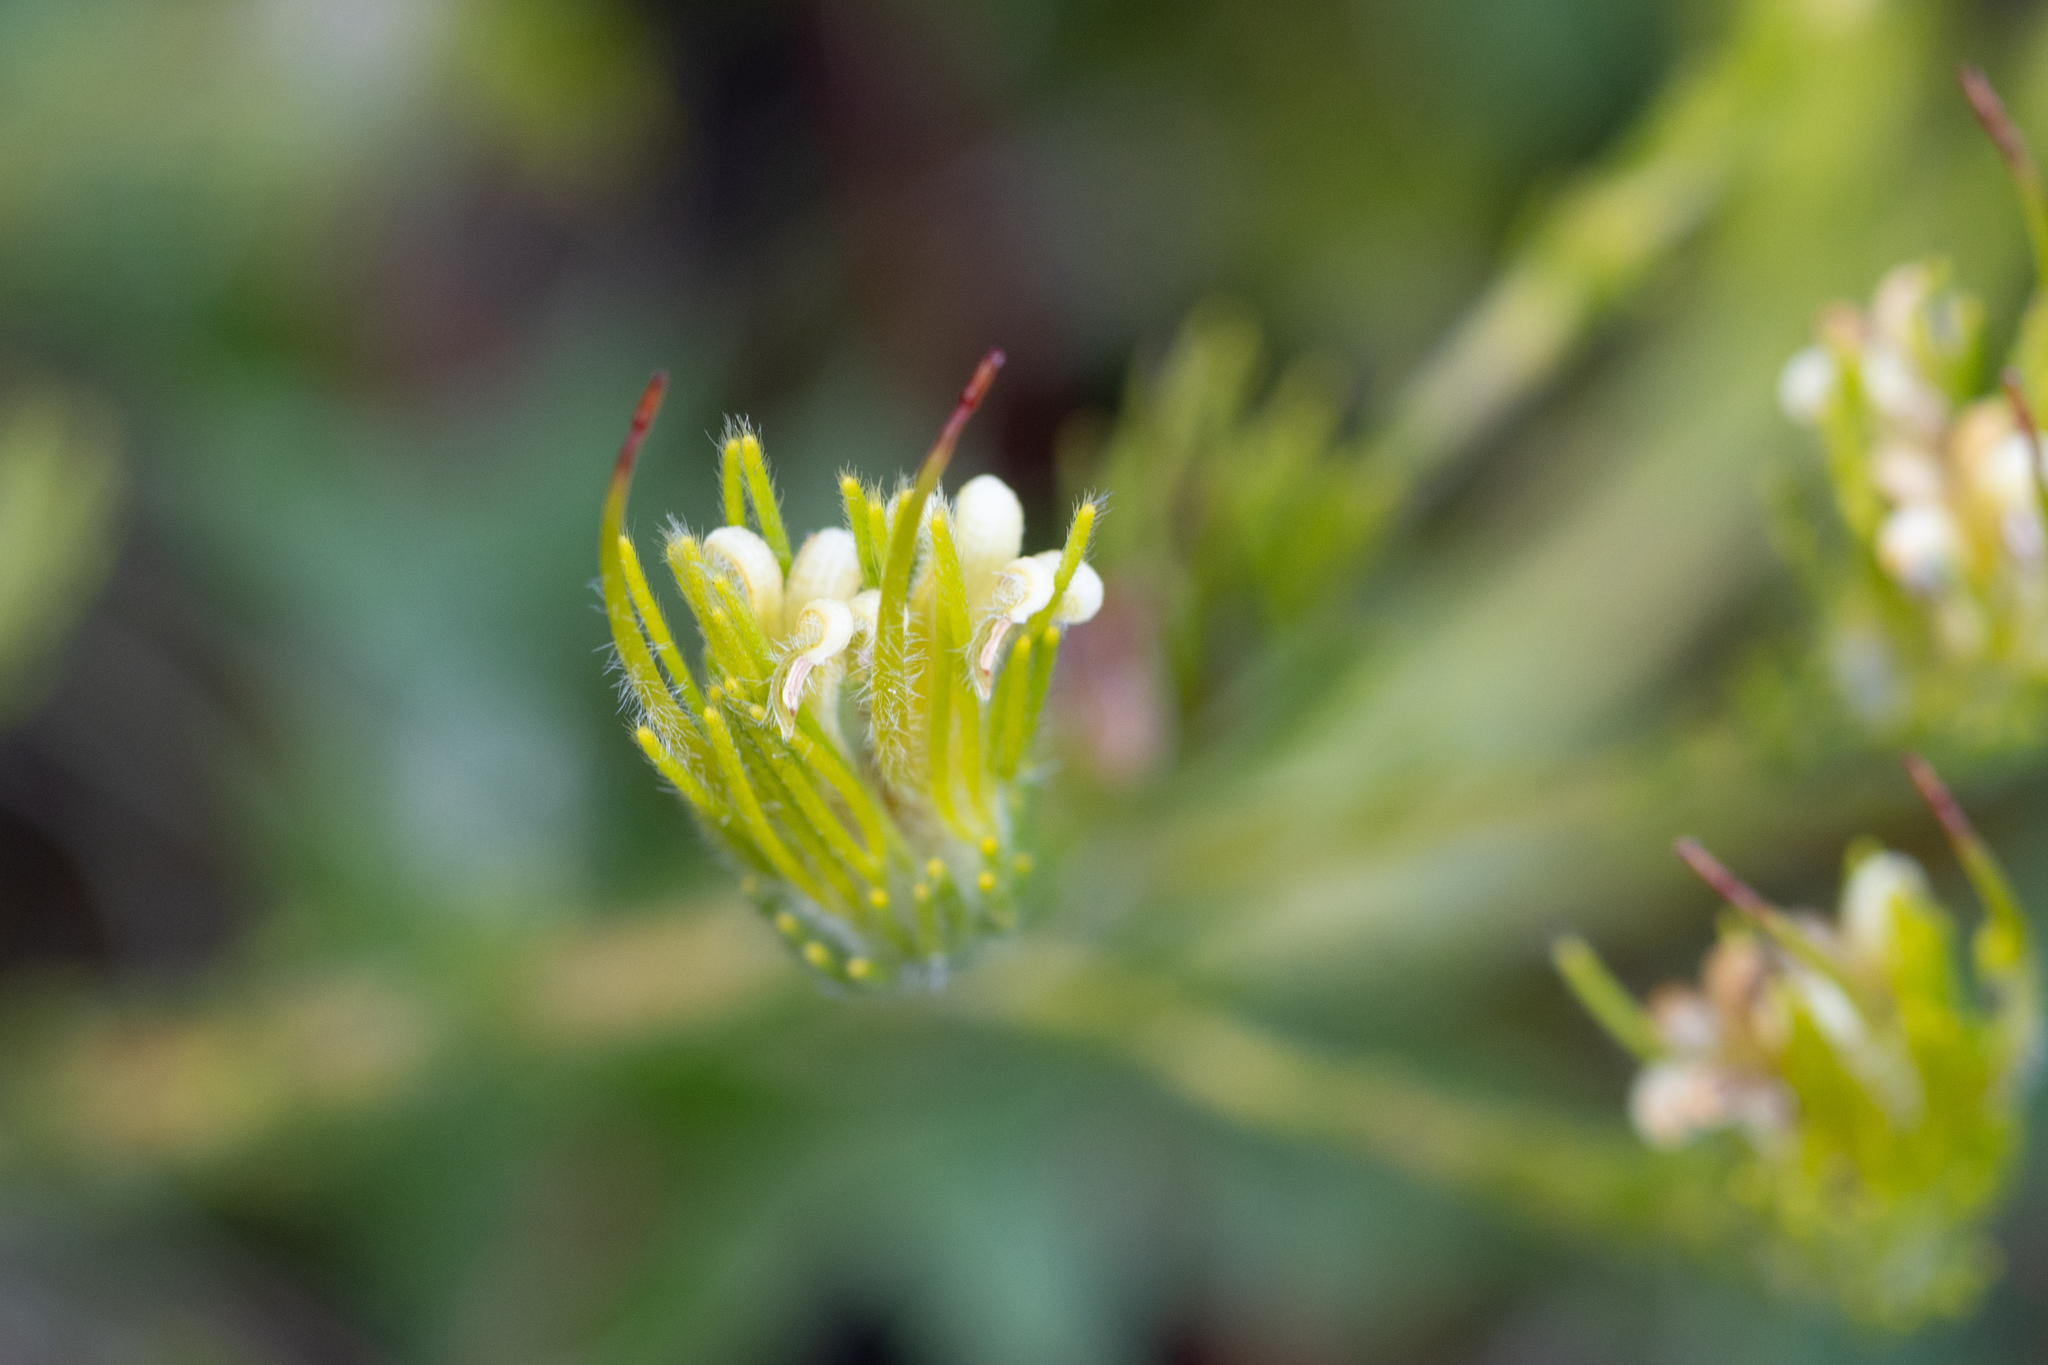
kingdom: Plantae
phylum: Tracheophyta
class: Magnoliopsida
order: Proteales
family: Proteaceae
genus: Adenanthos
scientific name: Adenanthos terminalis
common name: Yellow gland-flower
